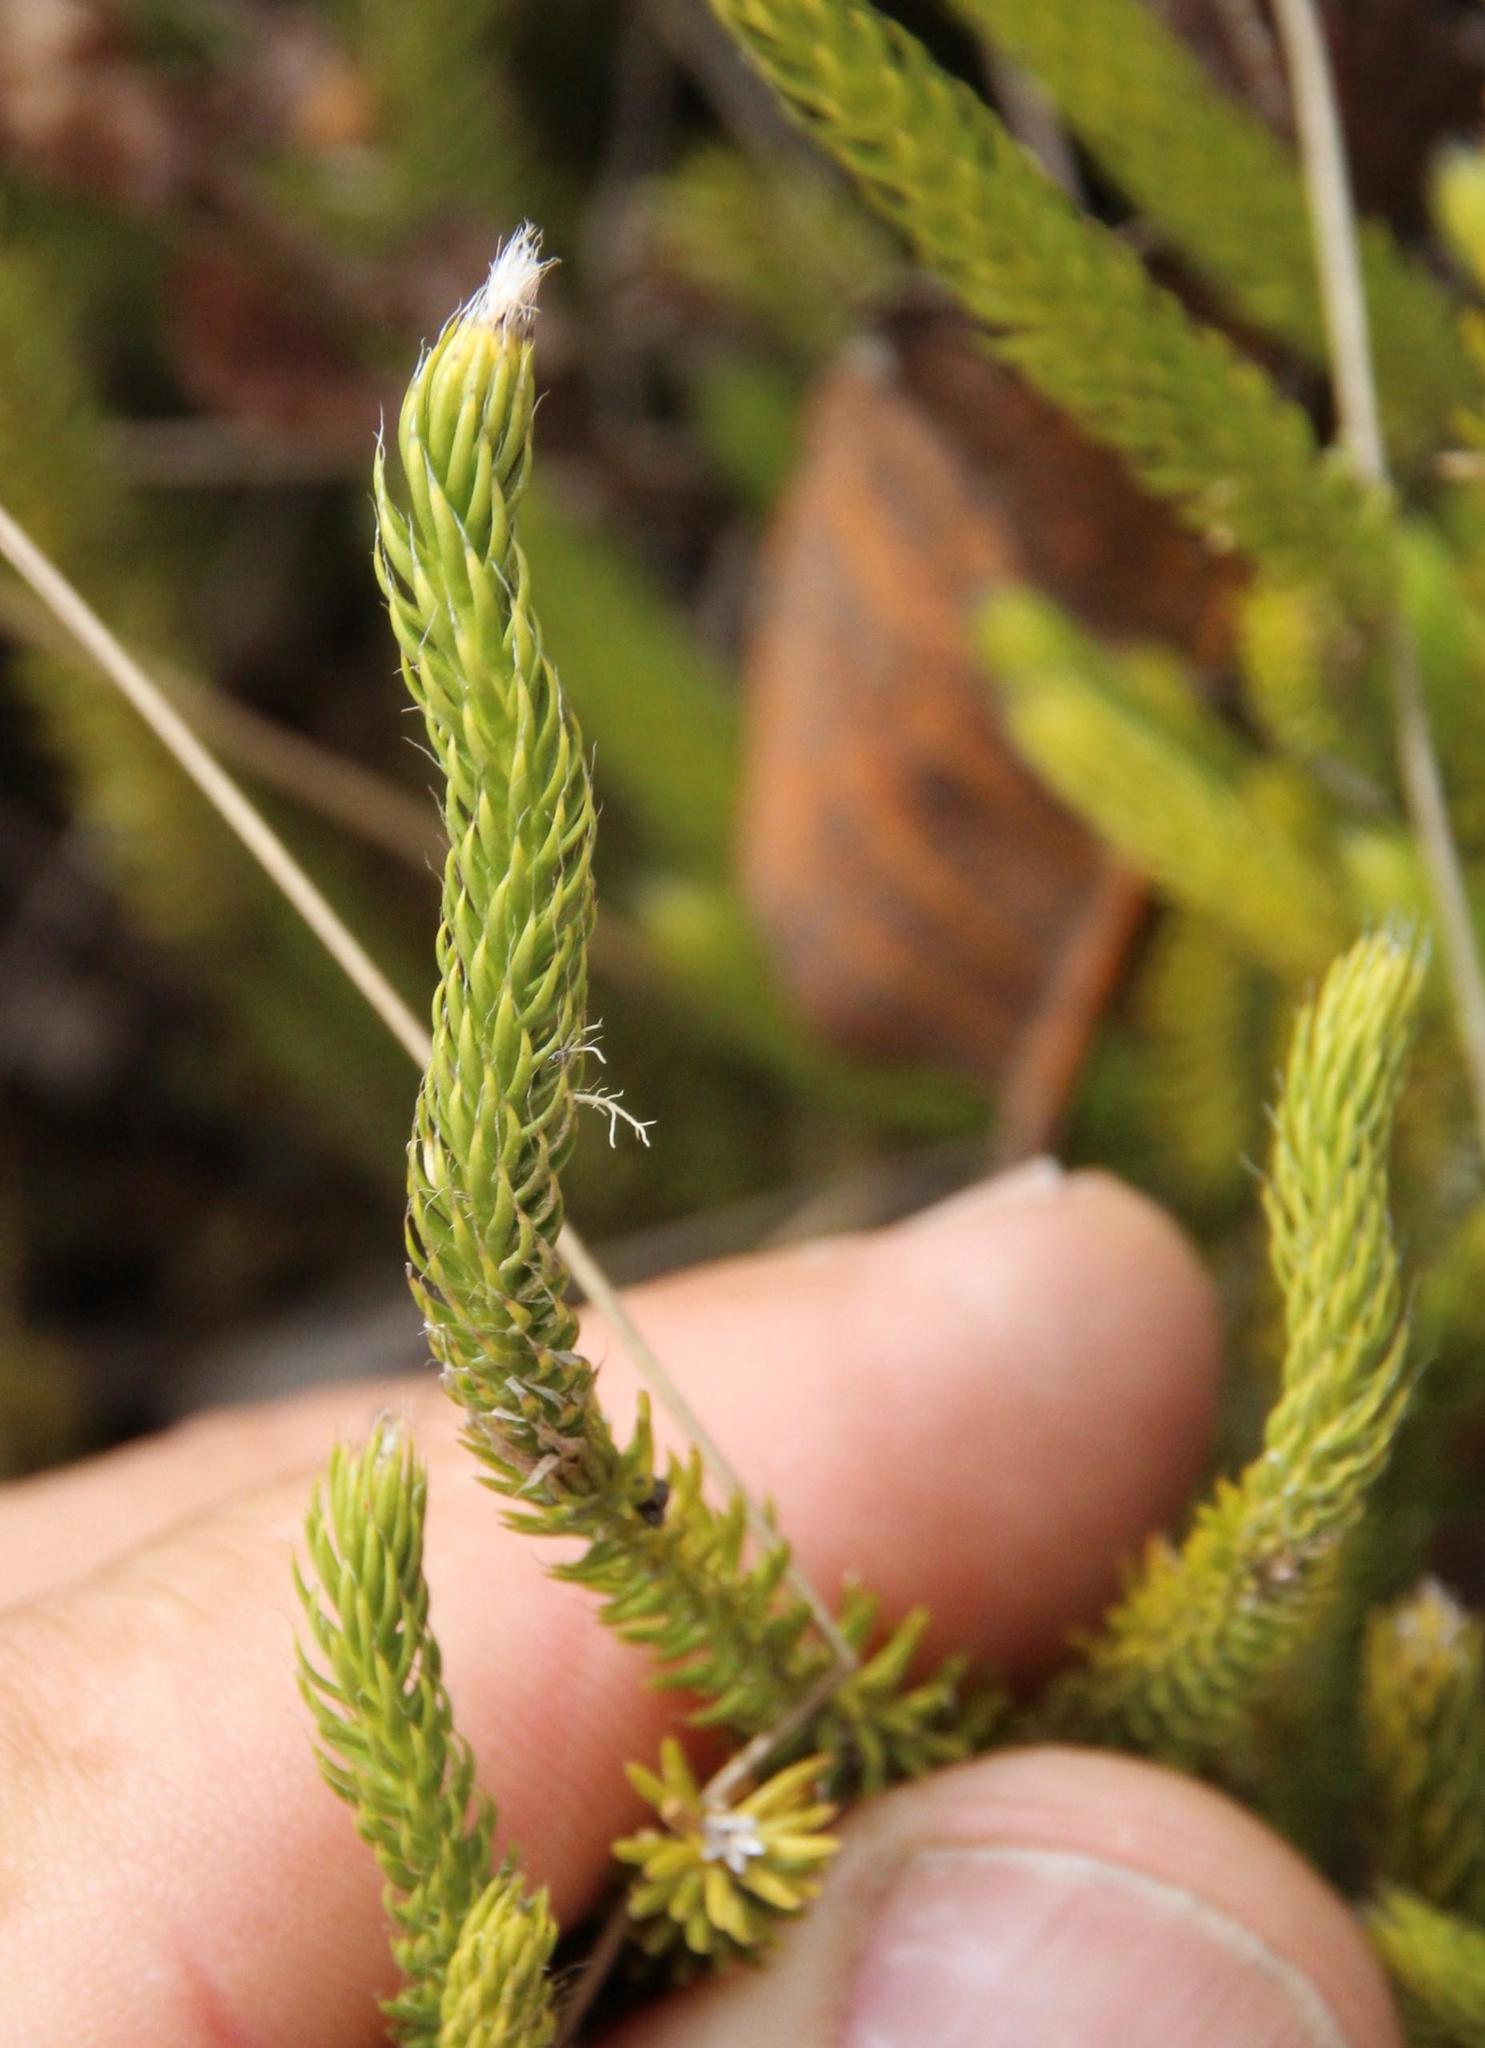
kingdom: Plantae
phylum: Tracheophyta
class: Lycopodiopsida
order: Lycopodiales
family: Lycopodiaceae
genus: Lycopodium
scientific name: Lycopodium clavatum
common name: Stag's-horn clubmoss
